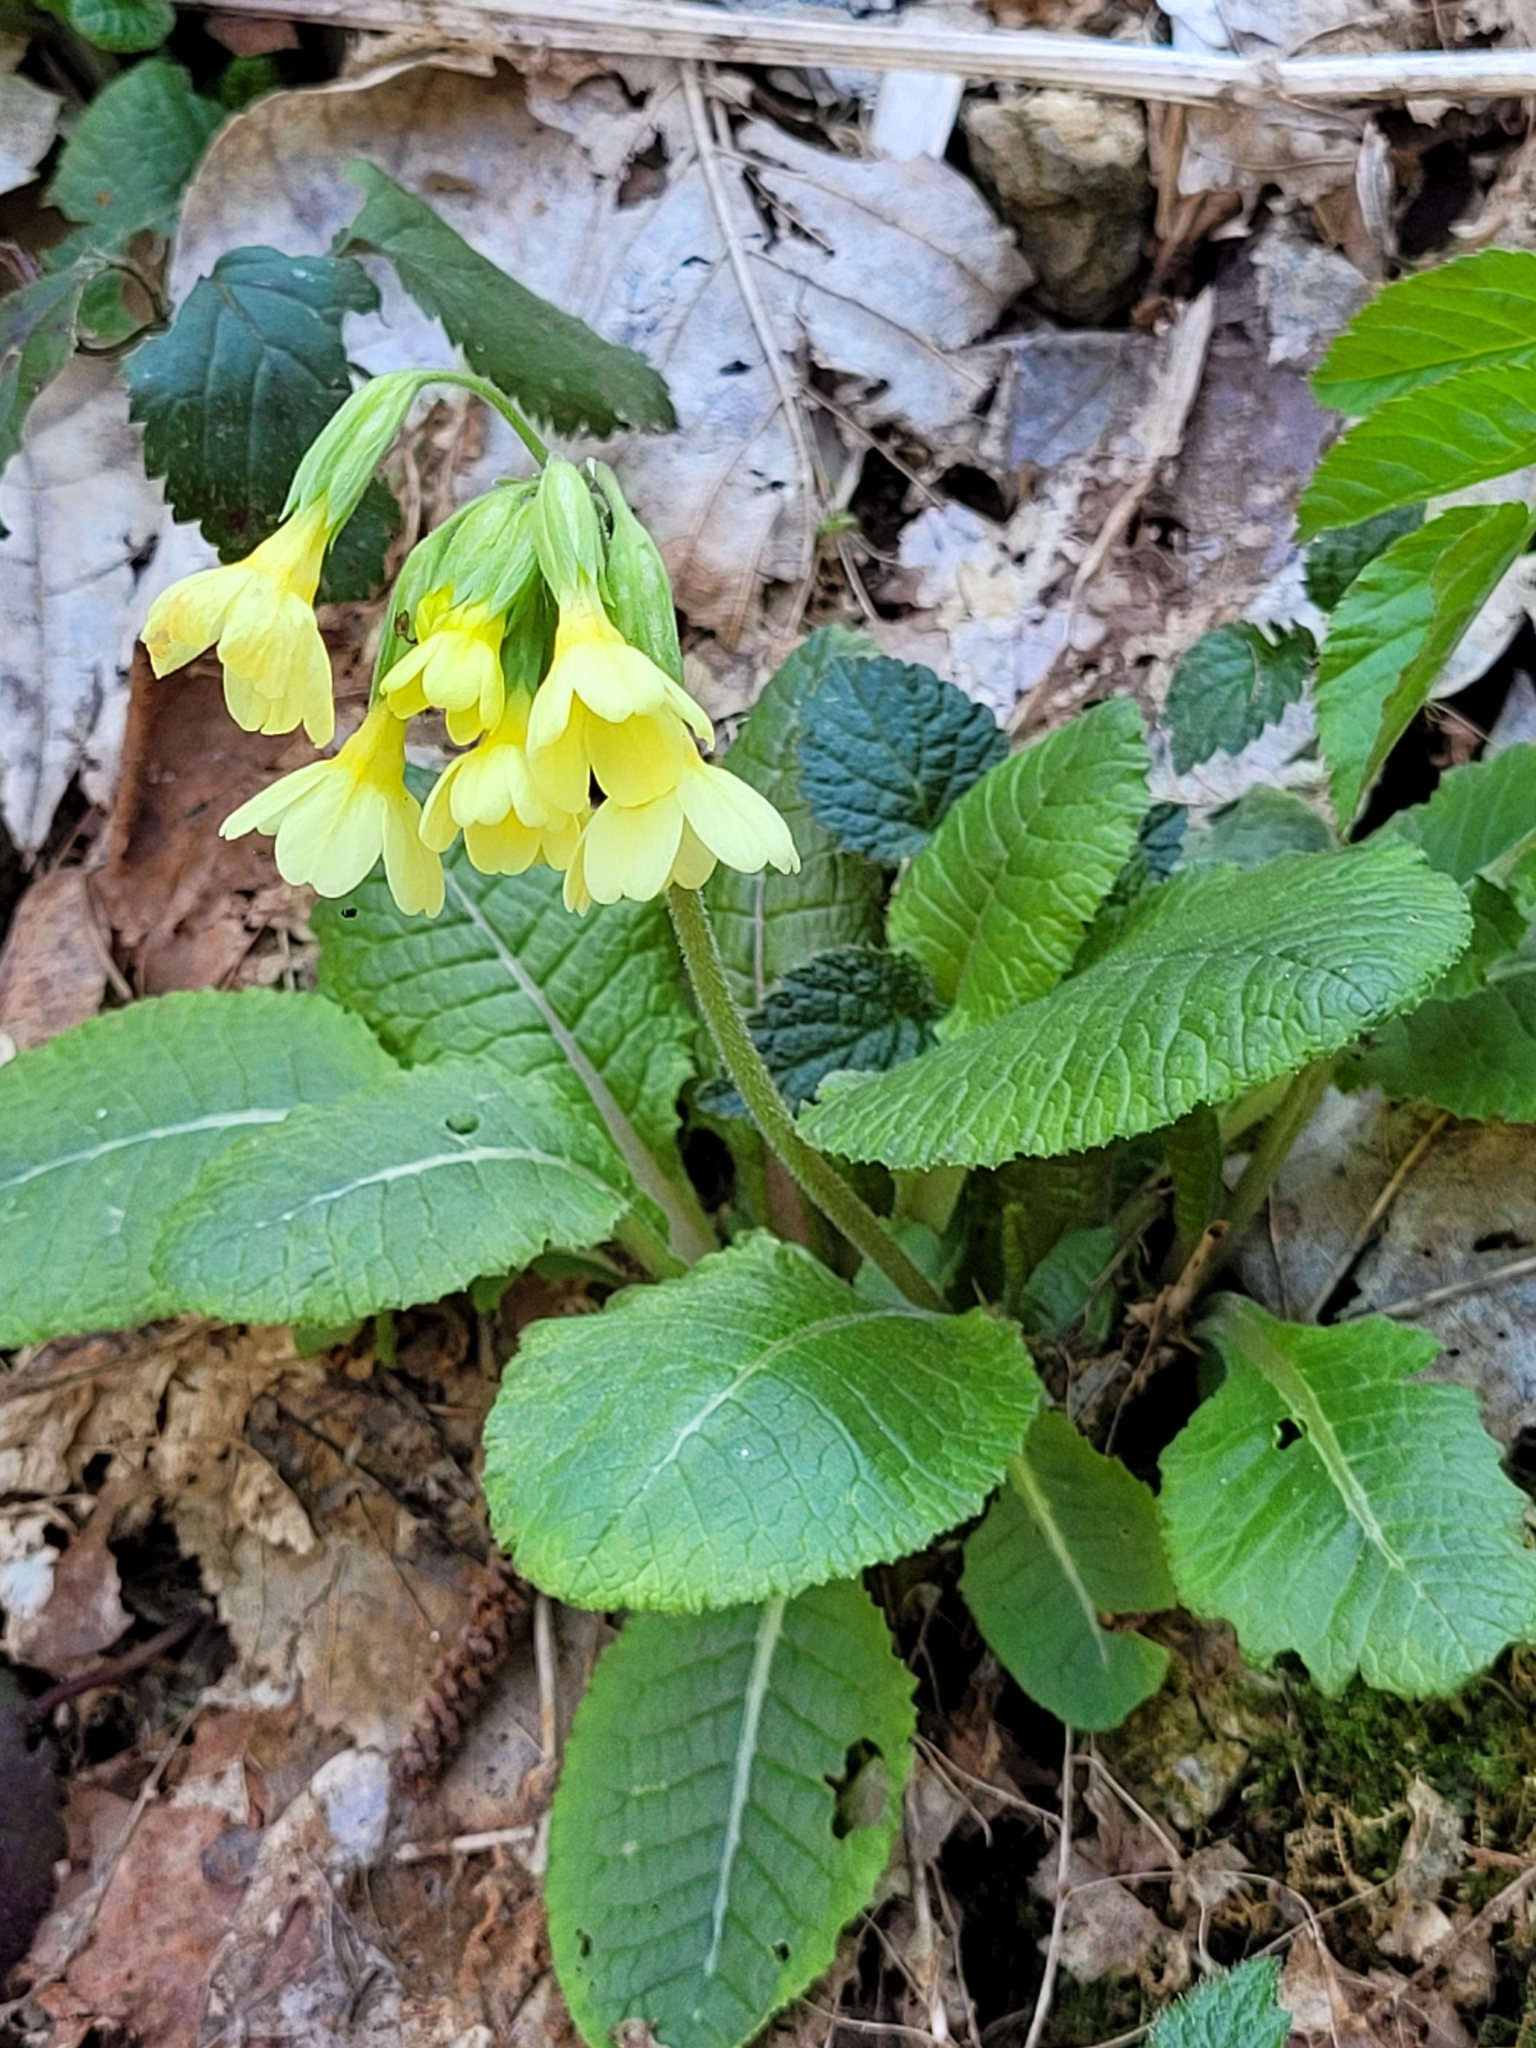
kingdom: Plantae
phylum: Tracheophyta
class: Magnoliopsida
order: Ericales
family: Primulaceae
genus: Primula
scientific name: Primula elatior
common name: Oxlip
